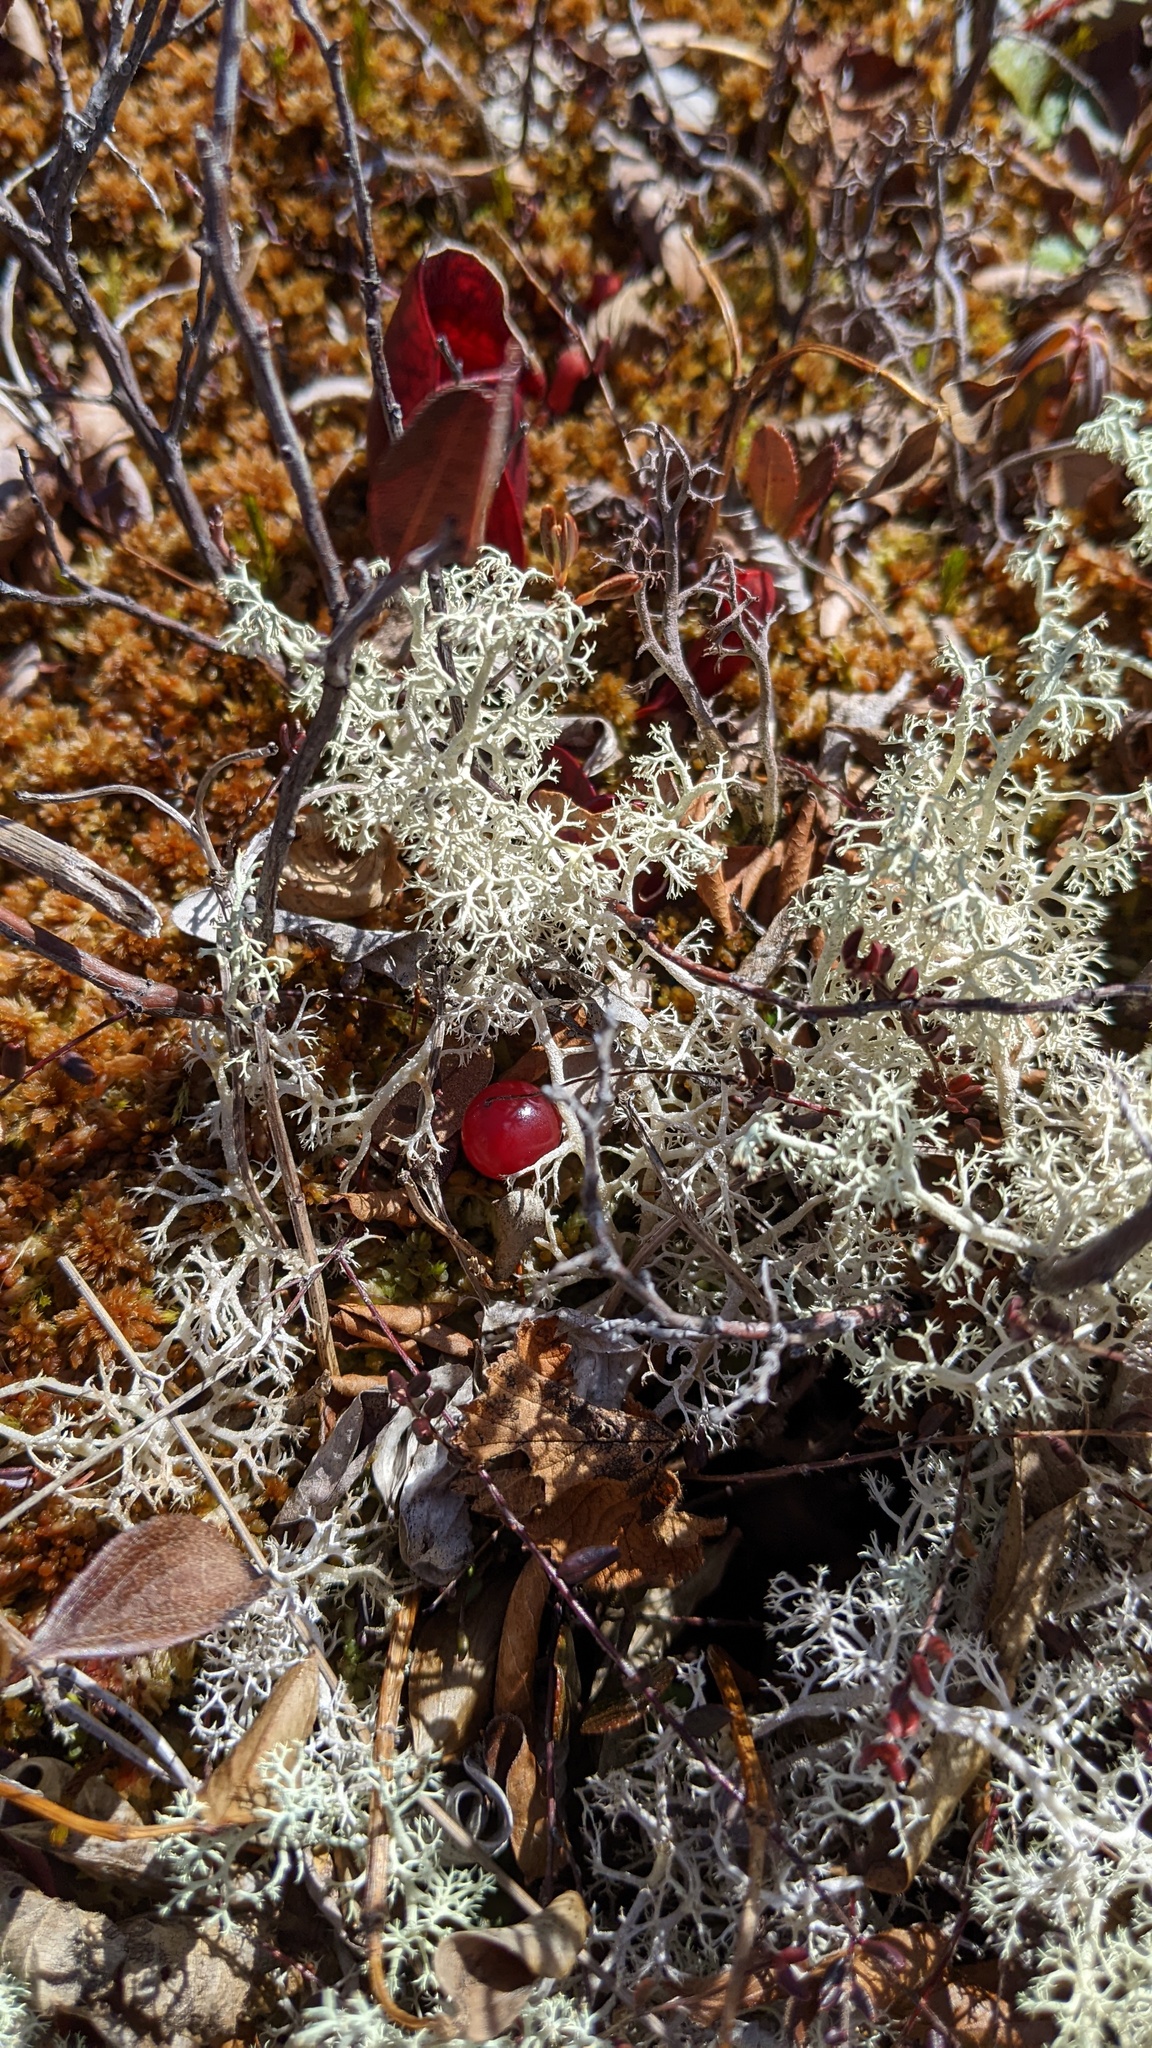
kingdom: Plantae
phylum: Tracheophyta
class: Magnoliopsida
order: Ericales
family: Ericaceae
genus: Vaccinium
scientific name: Vaccinium oxycoccos
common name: Cranberry
